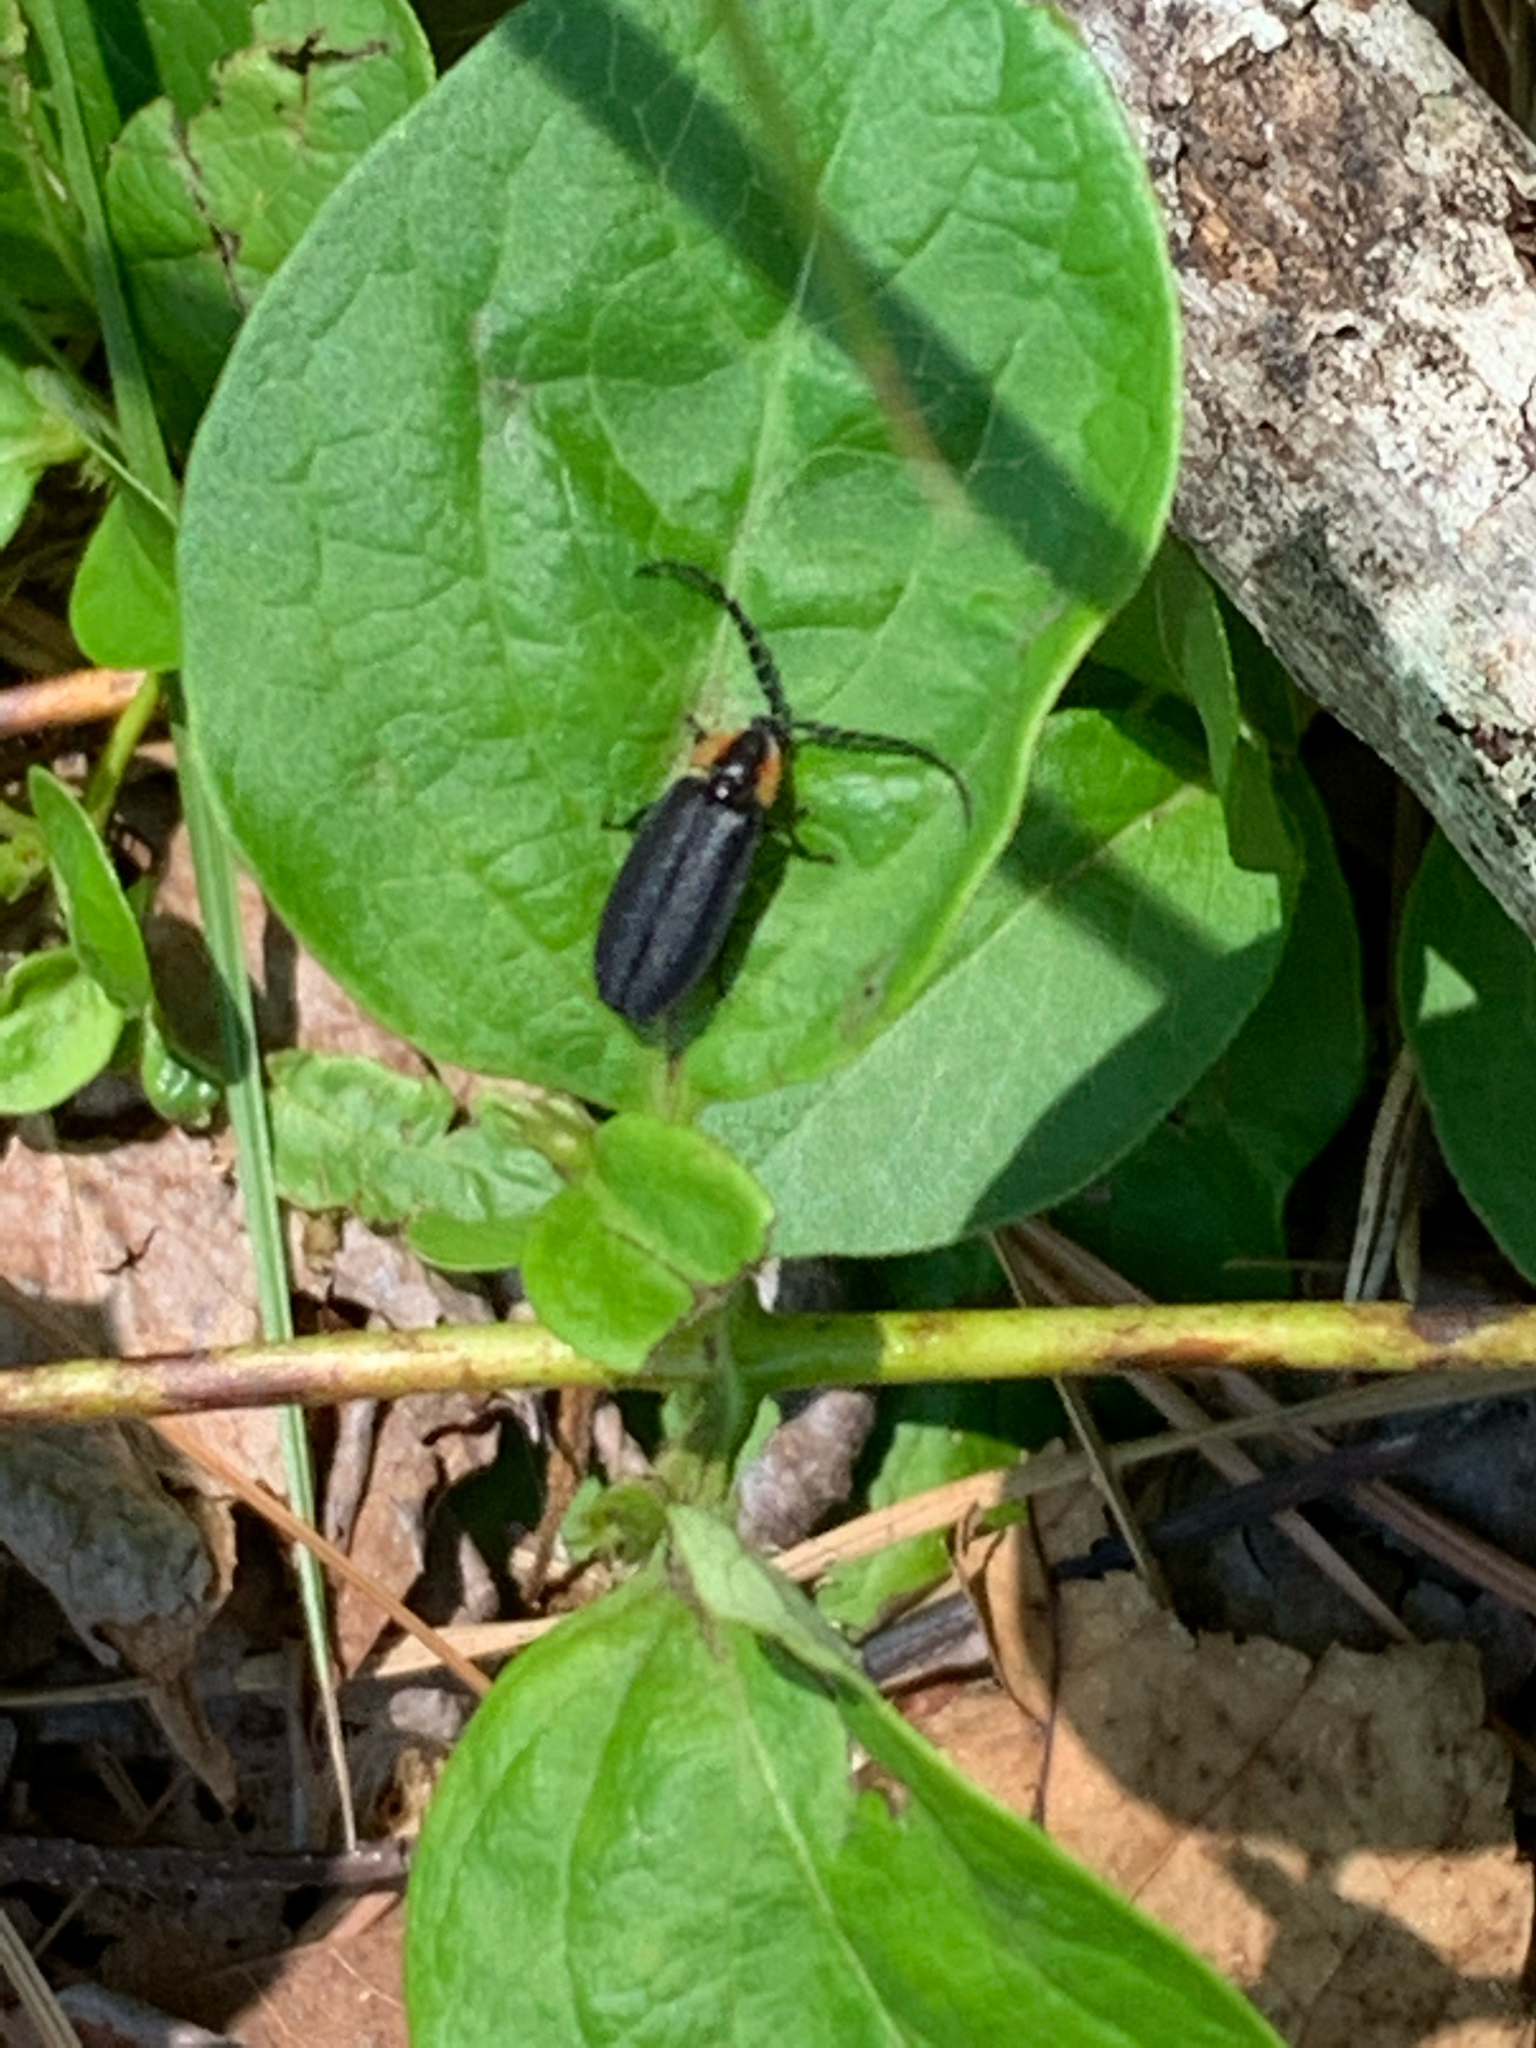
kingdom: Animalia
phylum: Arthropoda
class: Insecta
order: Coleoptera
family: Lampyridae
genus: Lucidota
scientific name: Lucidota atra
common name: Black firefly
